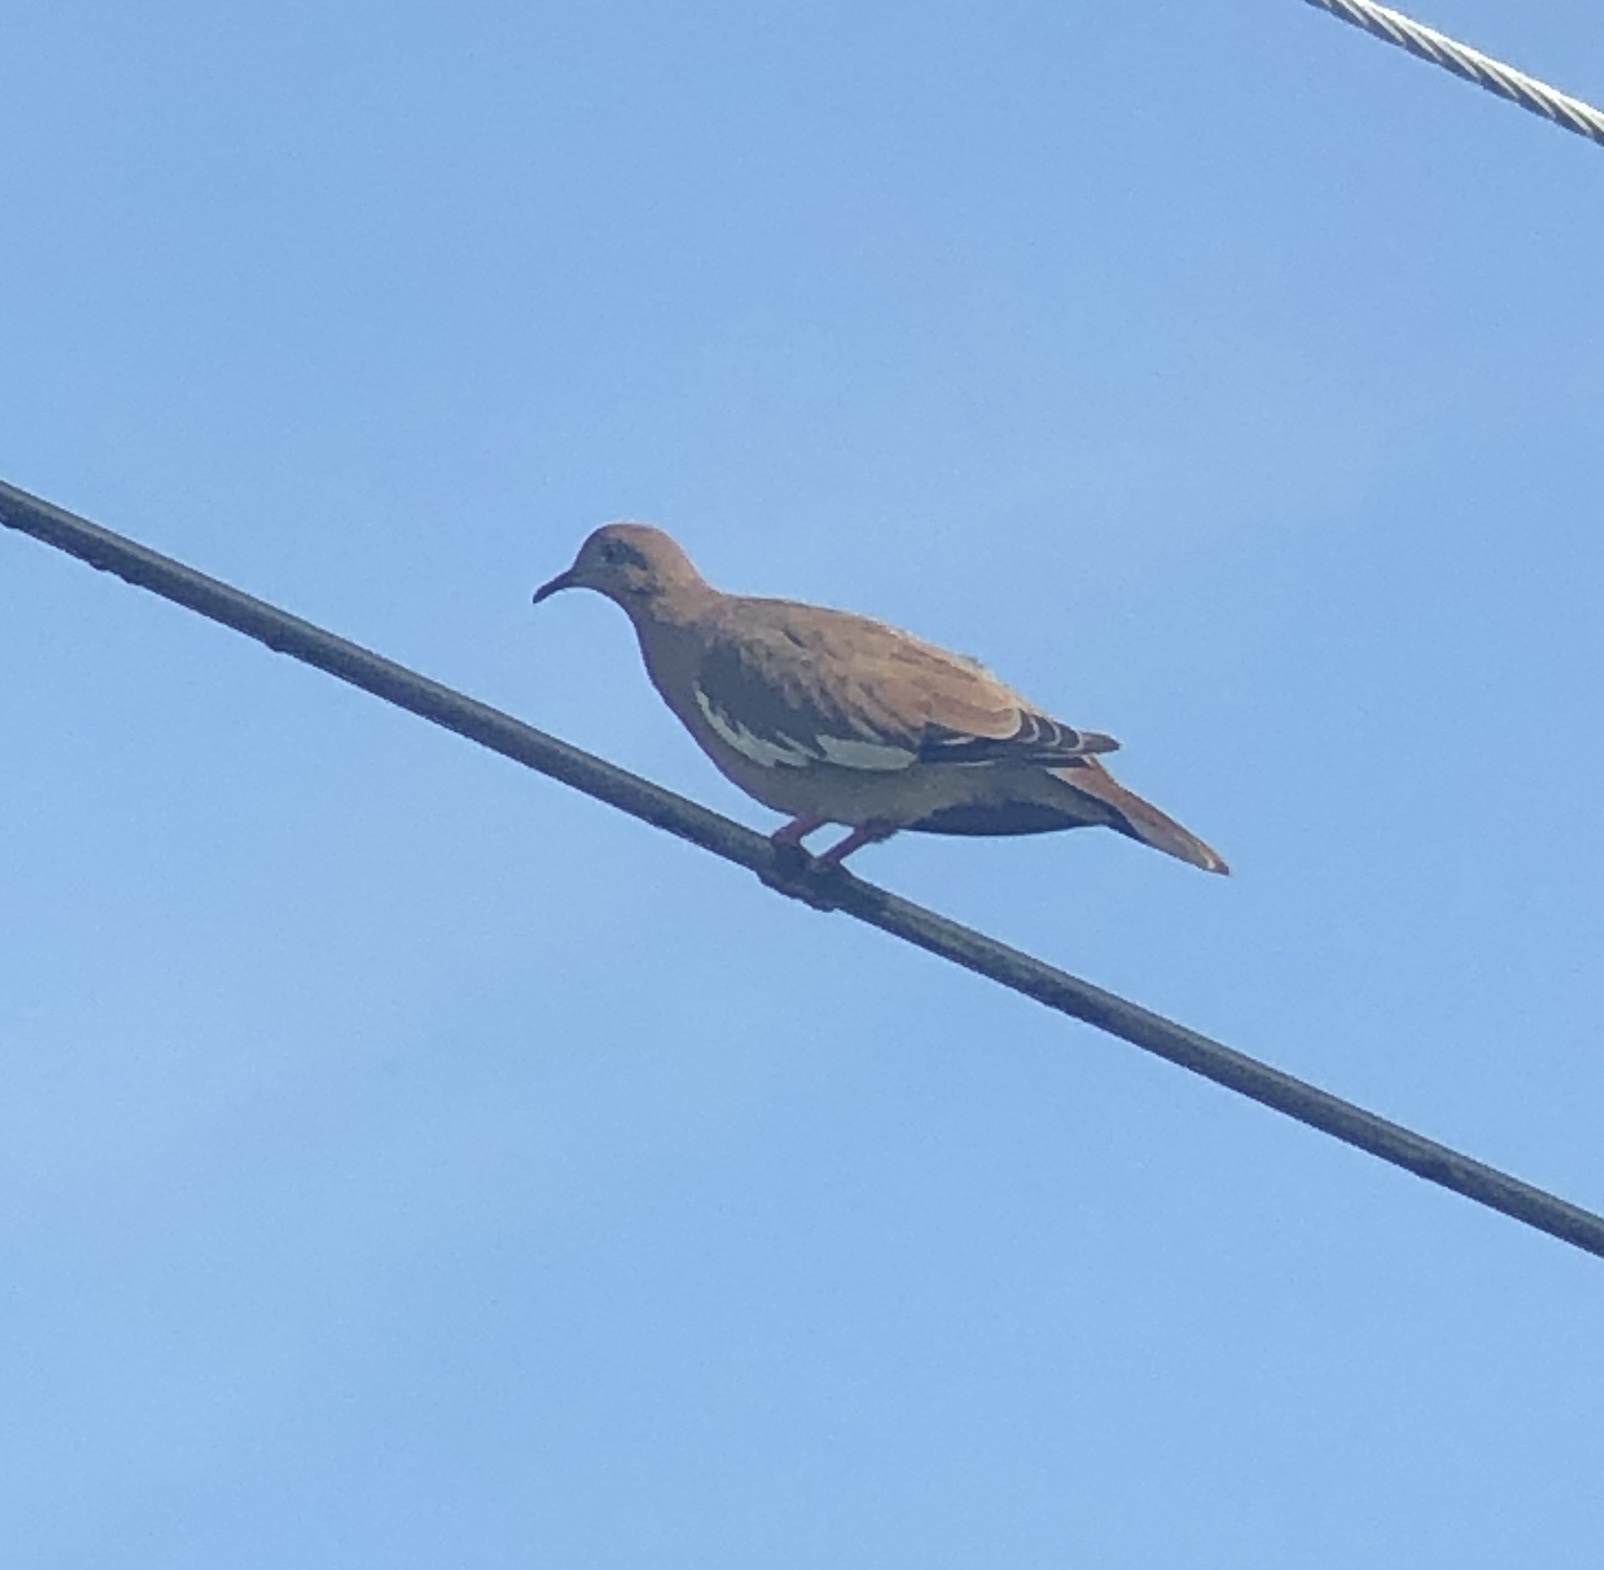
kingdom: Animalia
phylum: Chordata
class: Aves
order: Columbiformes
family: Columbidae
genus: Zenaida
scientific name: Zenaida asiatica
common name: White-winged dove
